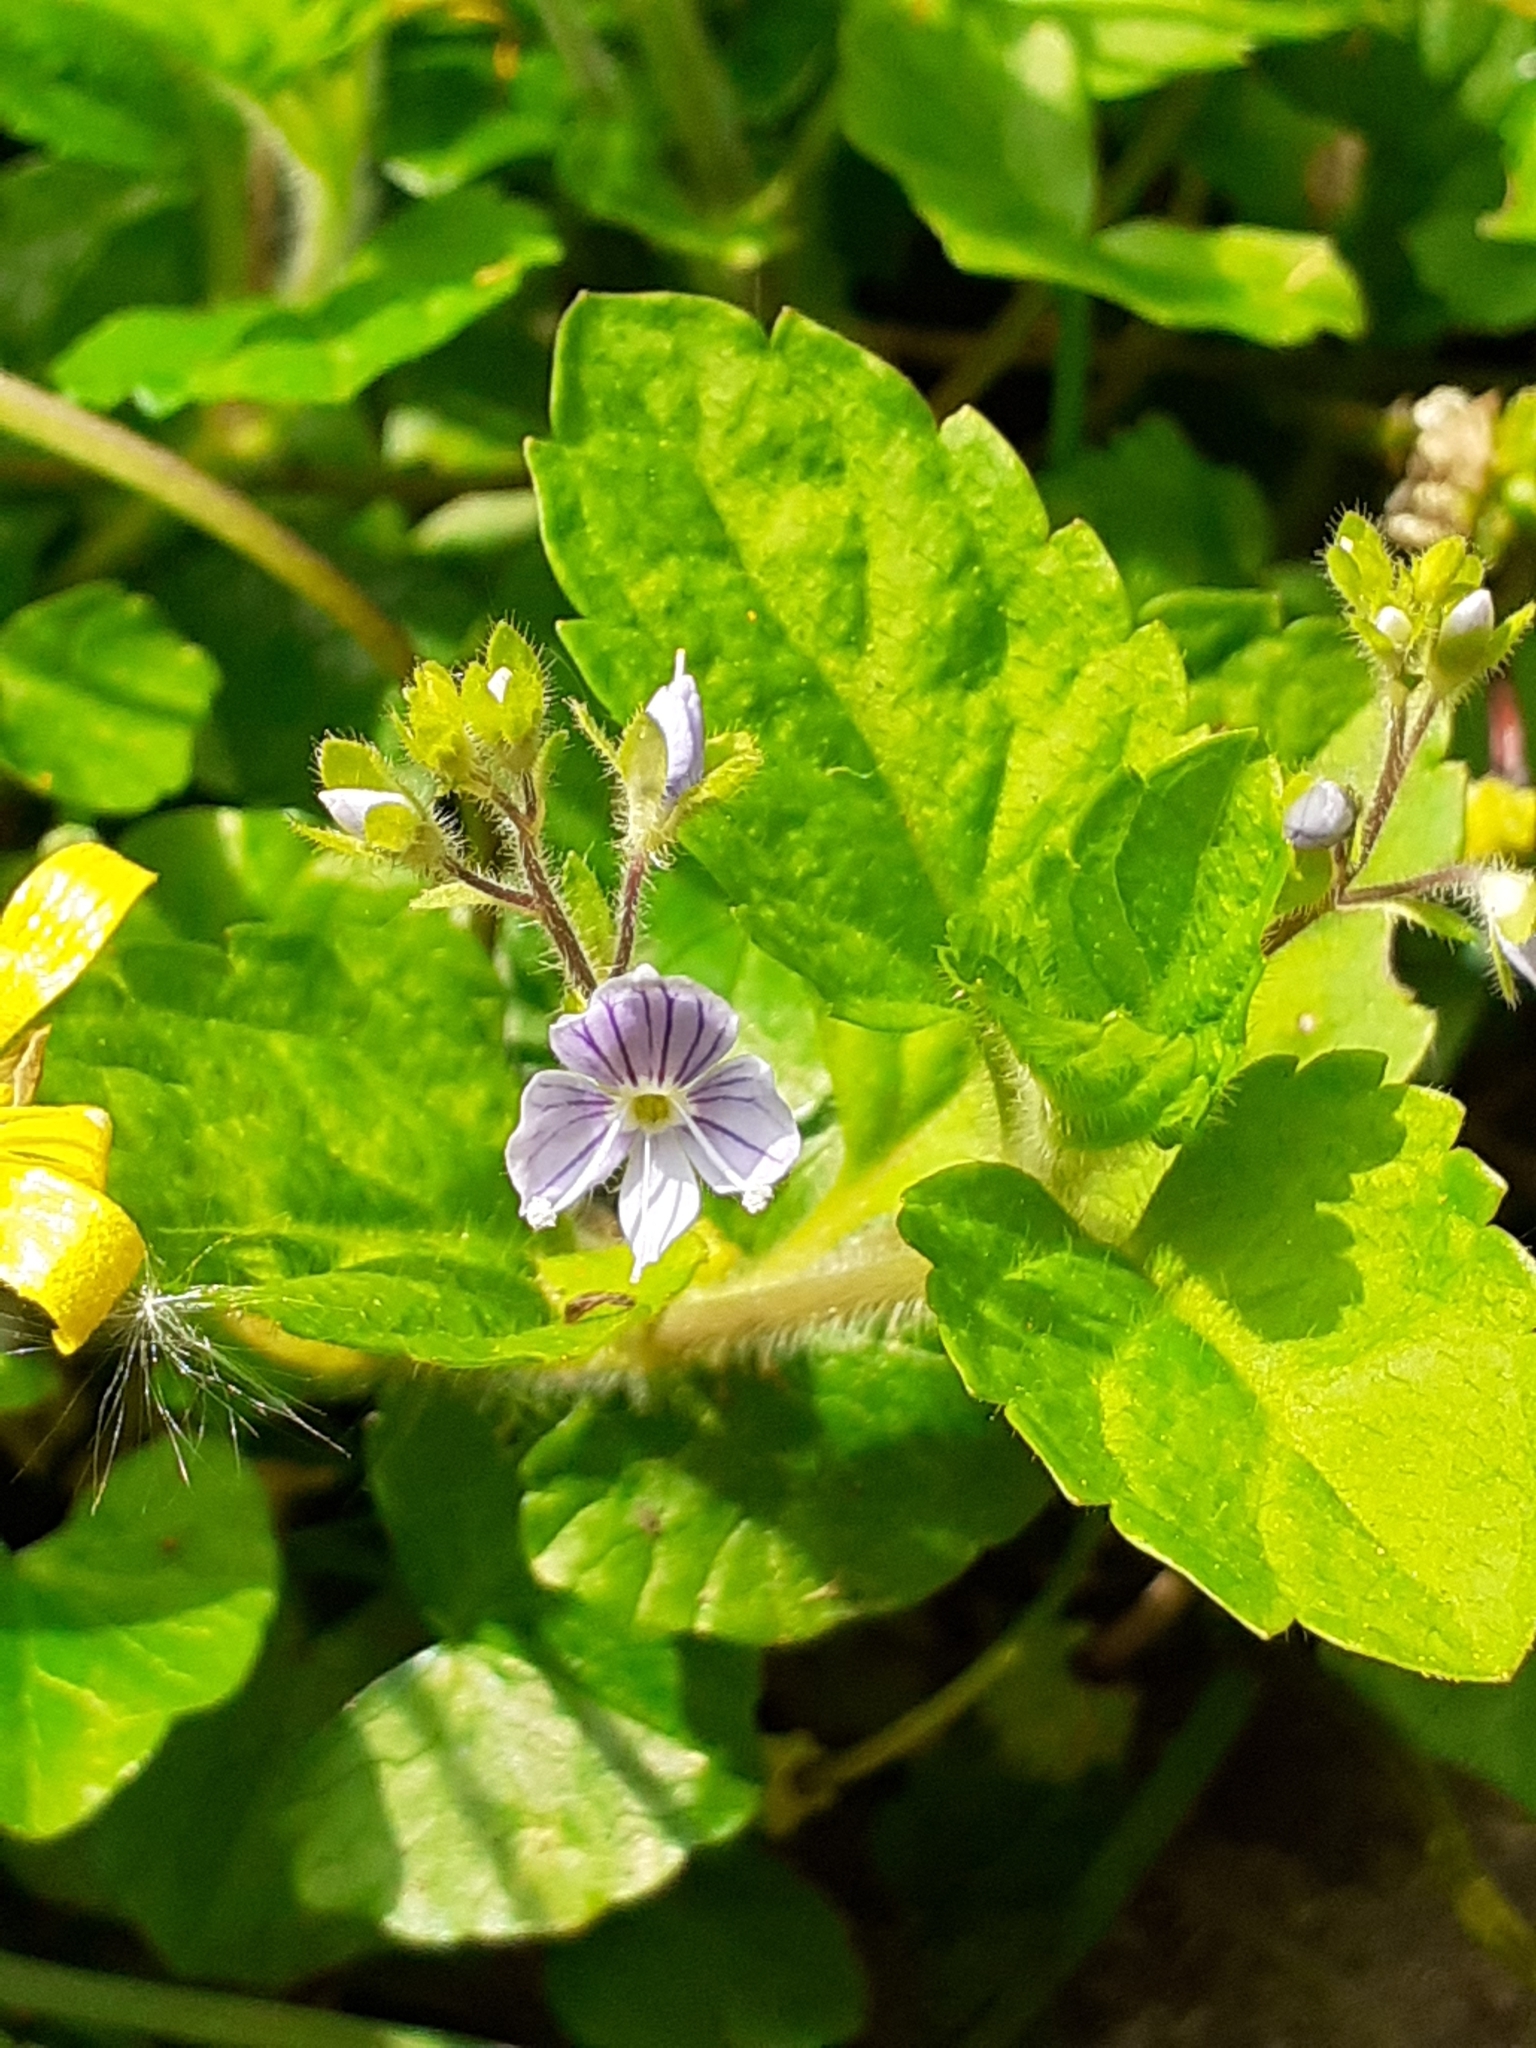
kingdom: Plantae
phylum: Tracheophyta
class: Magnoliopsida
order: Lamiales
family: Plantaginaceae
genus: Veronica
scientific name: Veronica montana
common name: Wood speedwell
